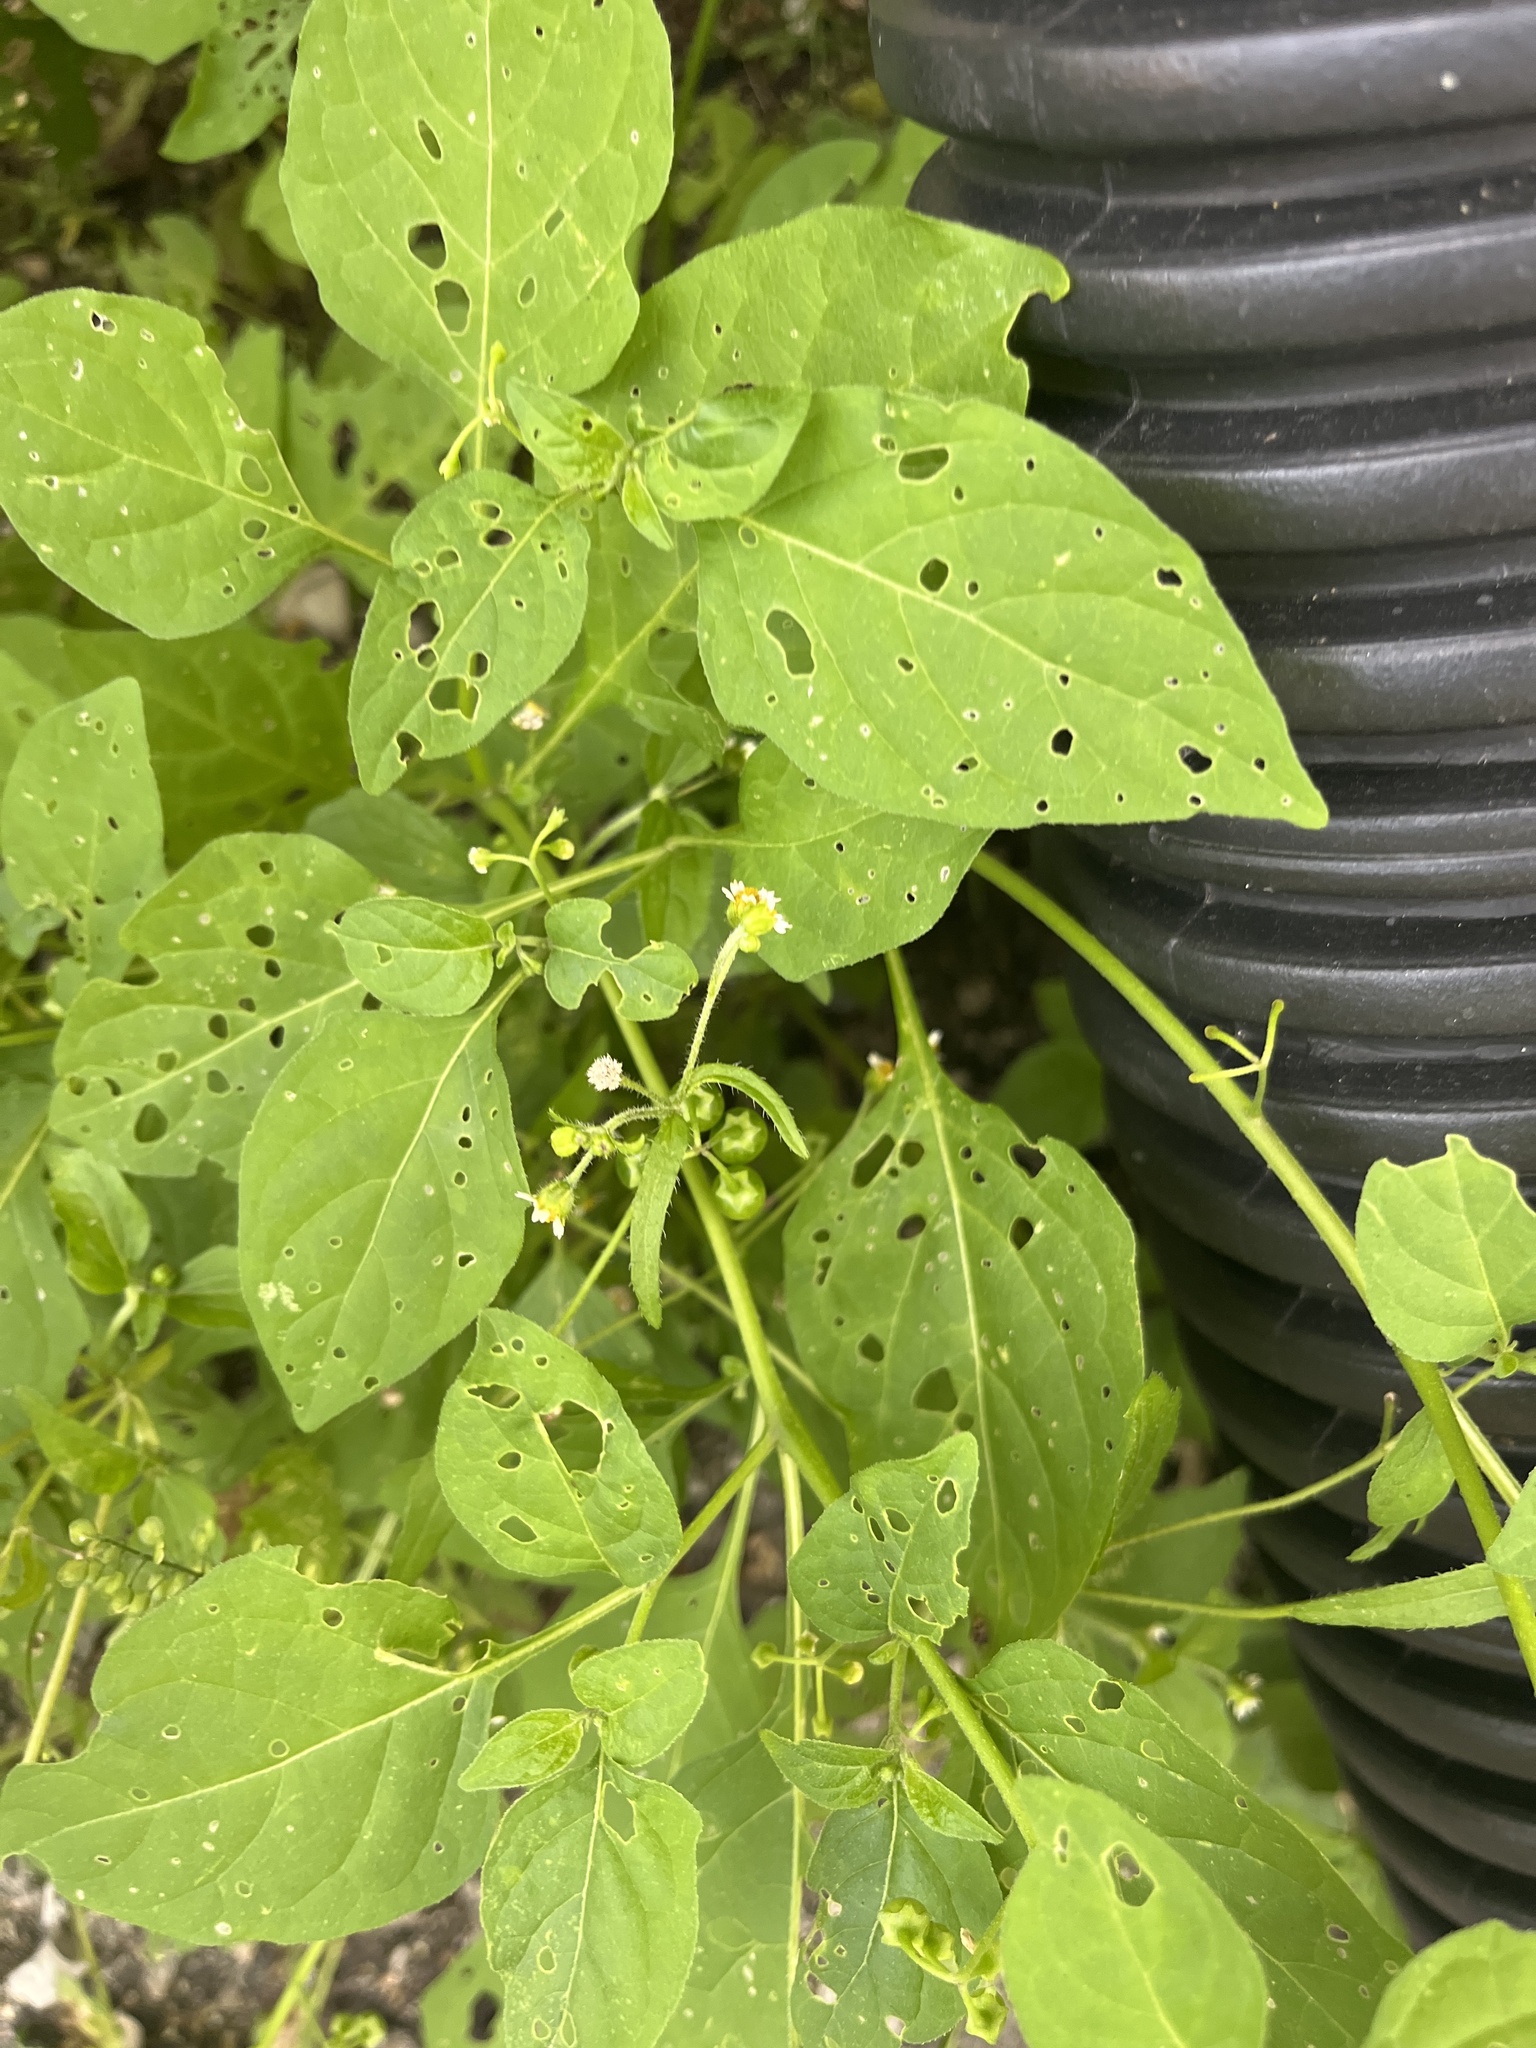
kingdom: Plantae
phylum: Tracheophyta
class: Magnoliopsida
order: Solanales
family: Solanaceae
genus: Solanum
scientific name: Solanum emulans
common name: Eastern black nightshade
